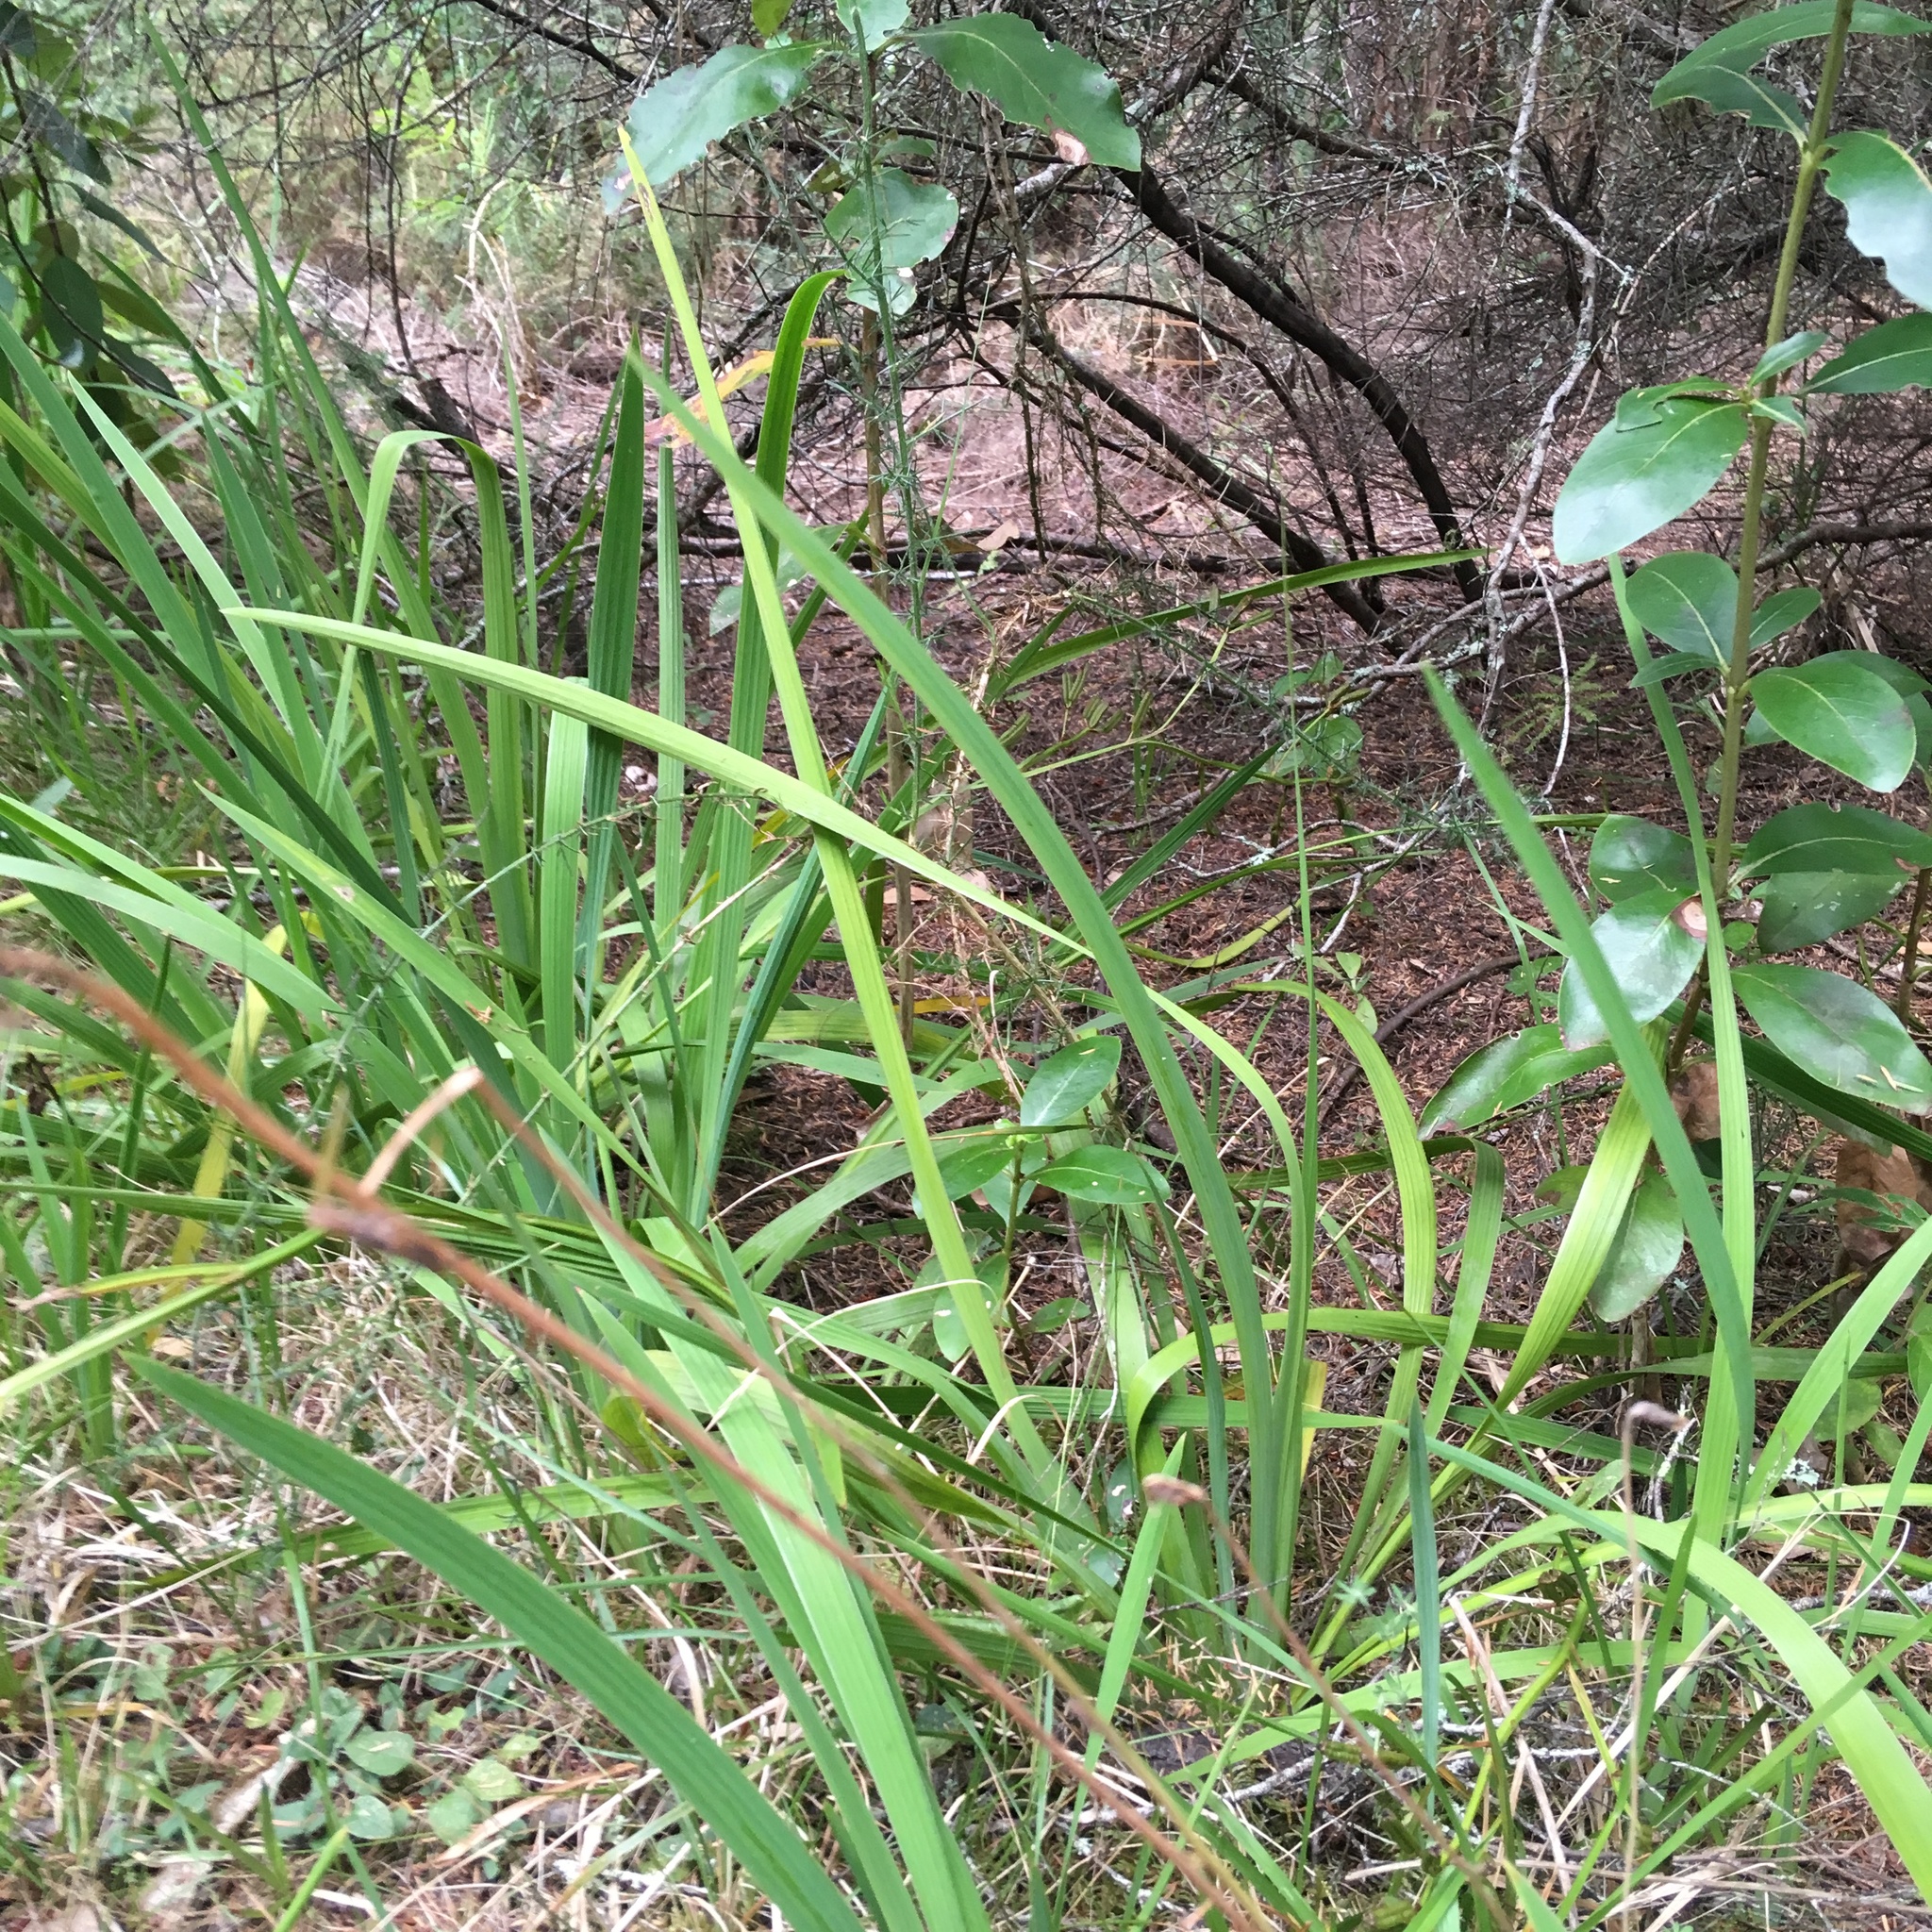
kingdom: Plantae
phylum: Tracheophyta
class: Liliopsida
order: Asparagales
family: Iridaceae
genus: Aristea
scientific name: Aristea ecklonii
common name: Blue corn-lily
